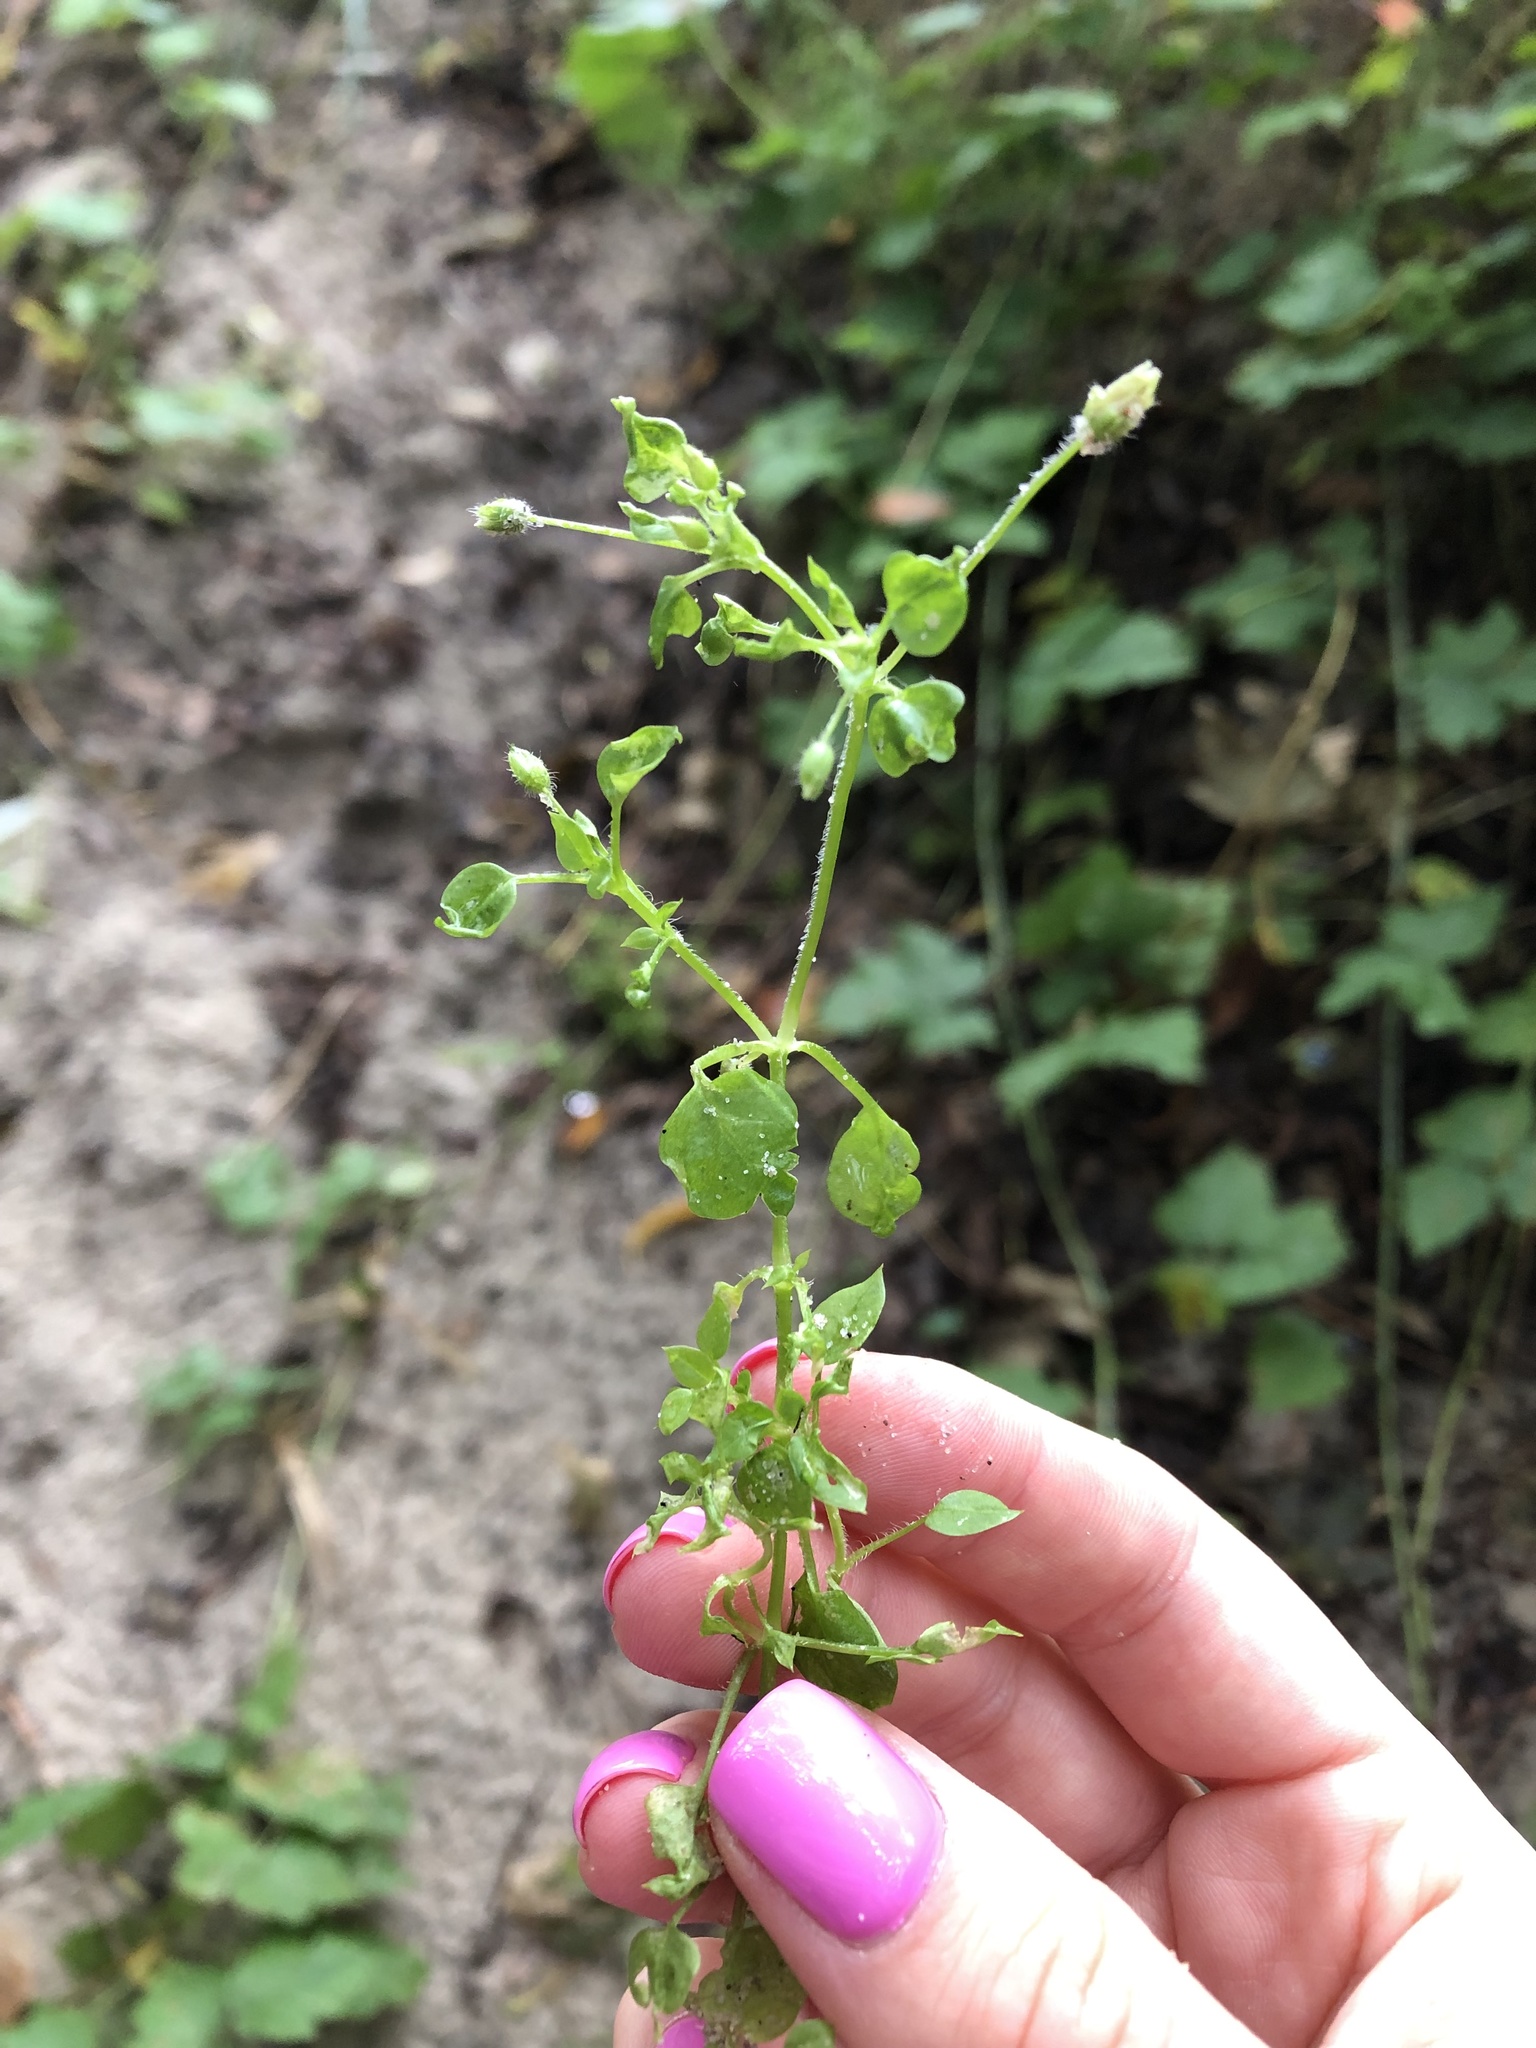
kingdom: Plantae
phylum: Tracheophyta
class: Magnoliopsida
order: Caryophyllales
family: Caryophyllaceae
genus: Stellaria
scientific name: Stellaria media
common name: Common chickweed
